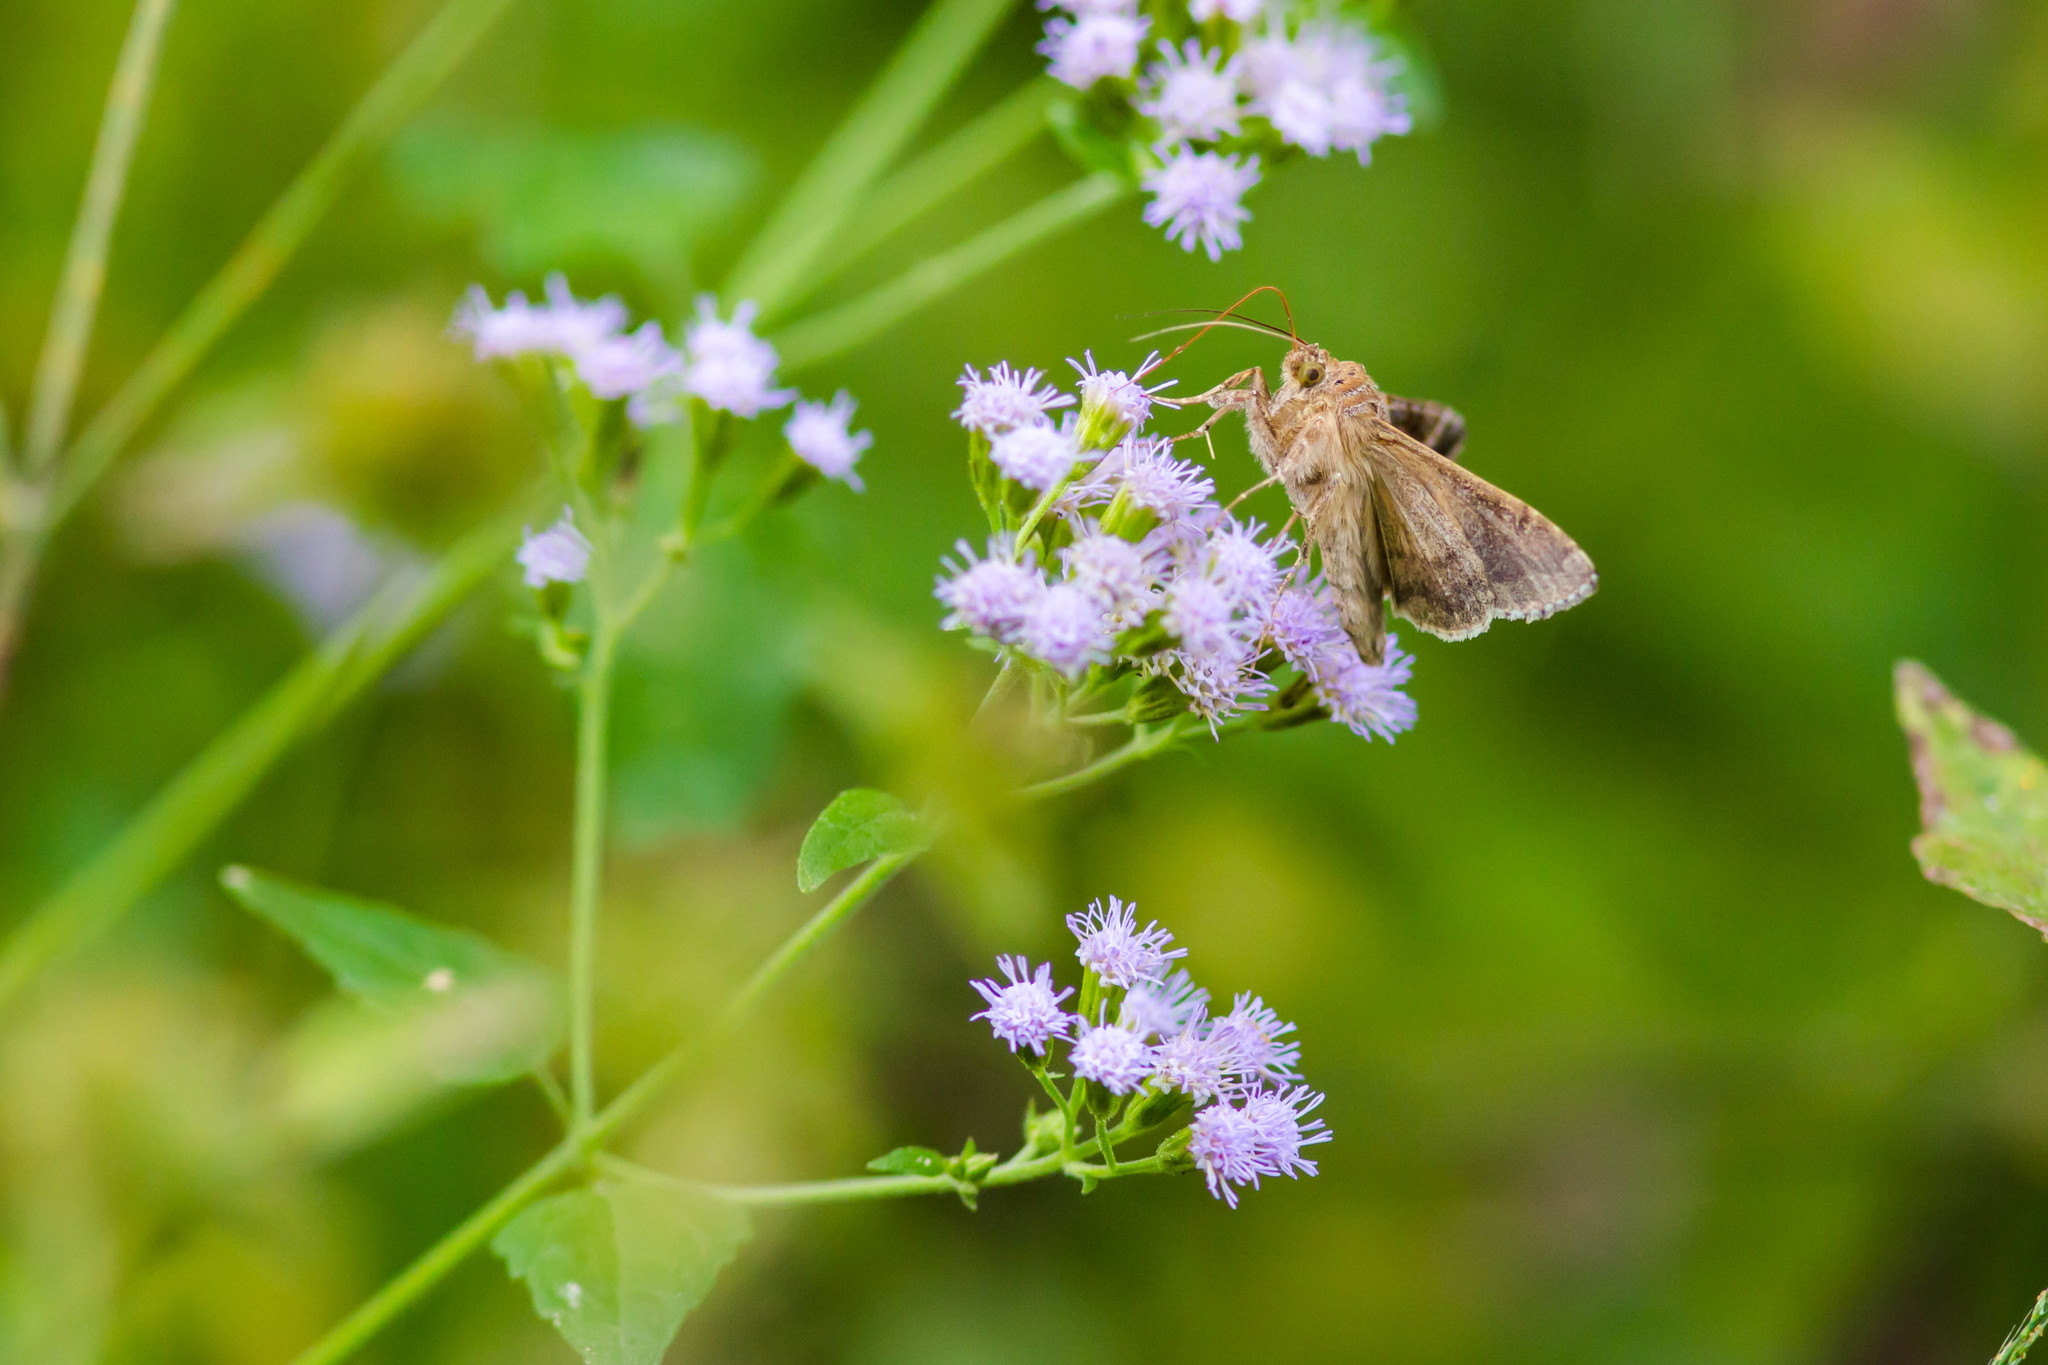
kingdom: Animalia
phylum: Arthropoda
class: Insecta
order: Lepidoptera
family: Noctuidae
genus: Chrysodeixis
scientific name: Chrysodeixis includens
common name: Cutworm moth
